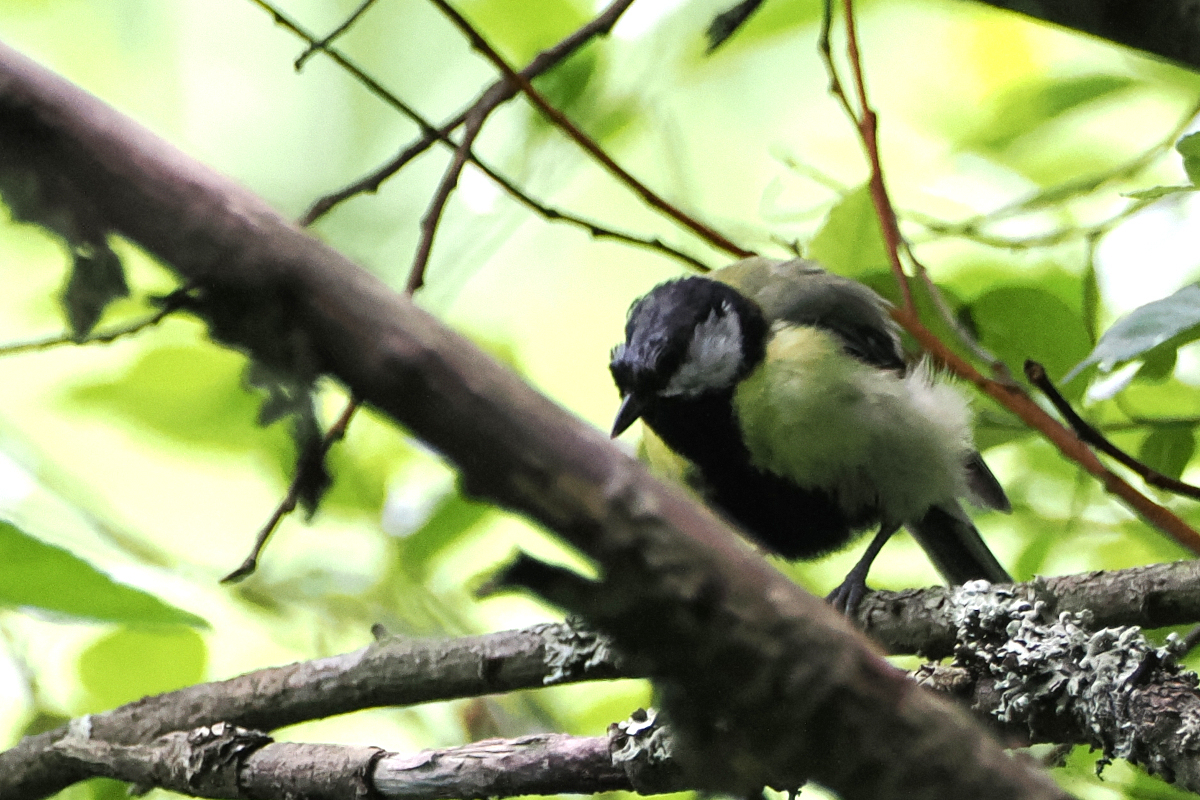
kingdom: Animalia
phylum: Chordata
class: Aves
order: Passeriformes
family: Paridae
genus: Parus
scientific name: Parus major
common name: Great tit
